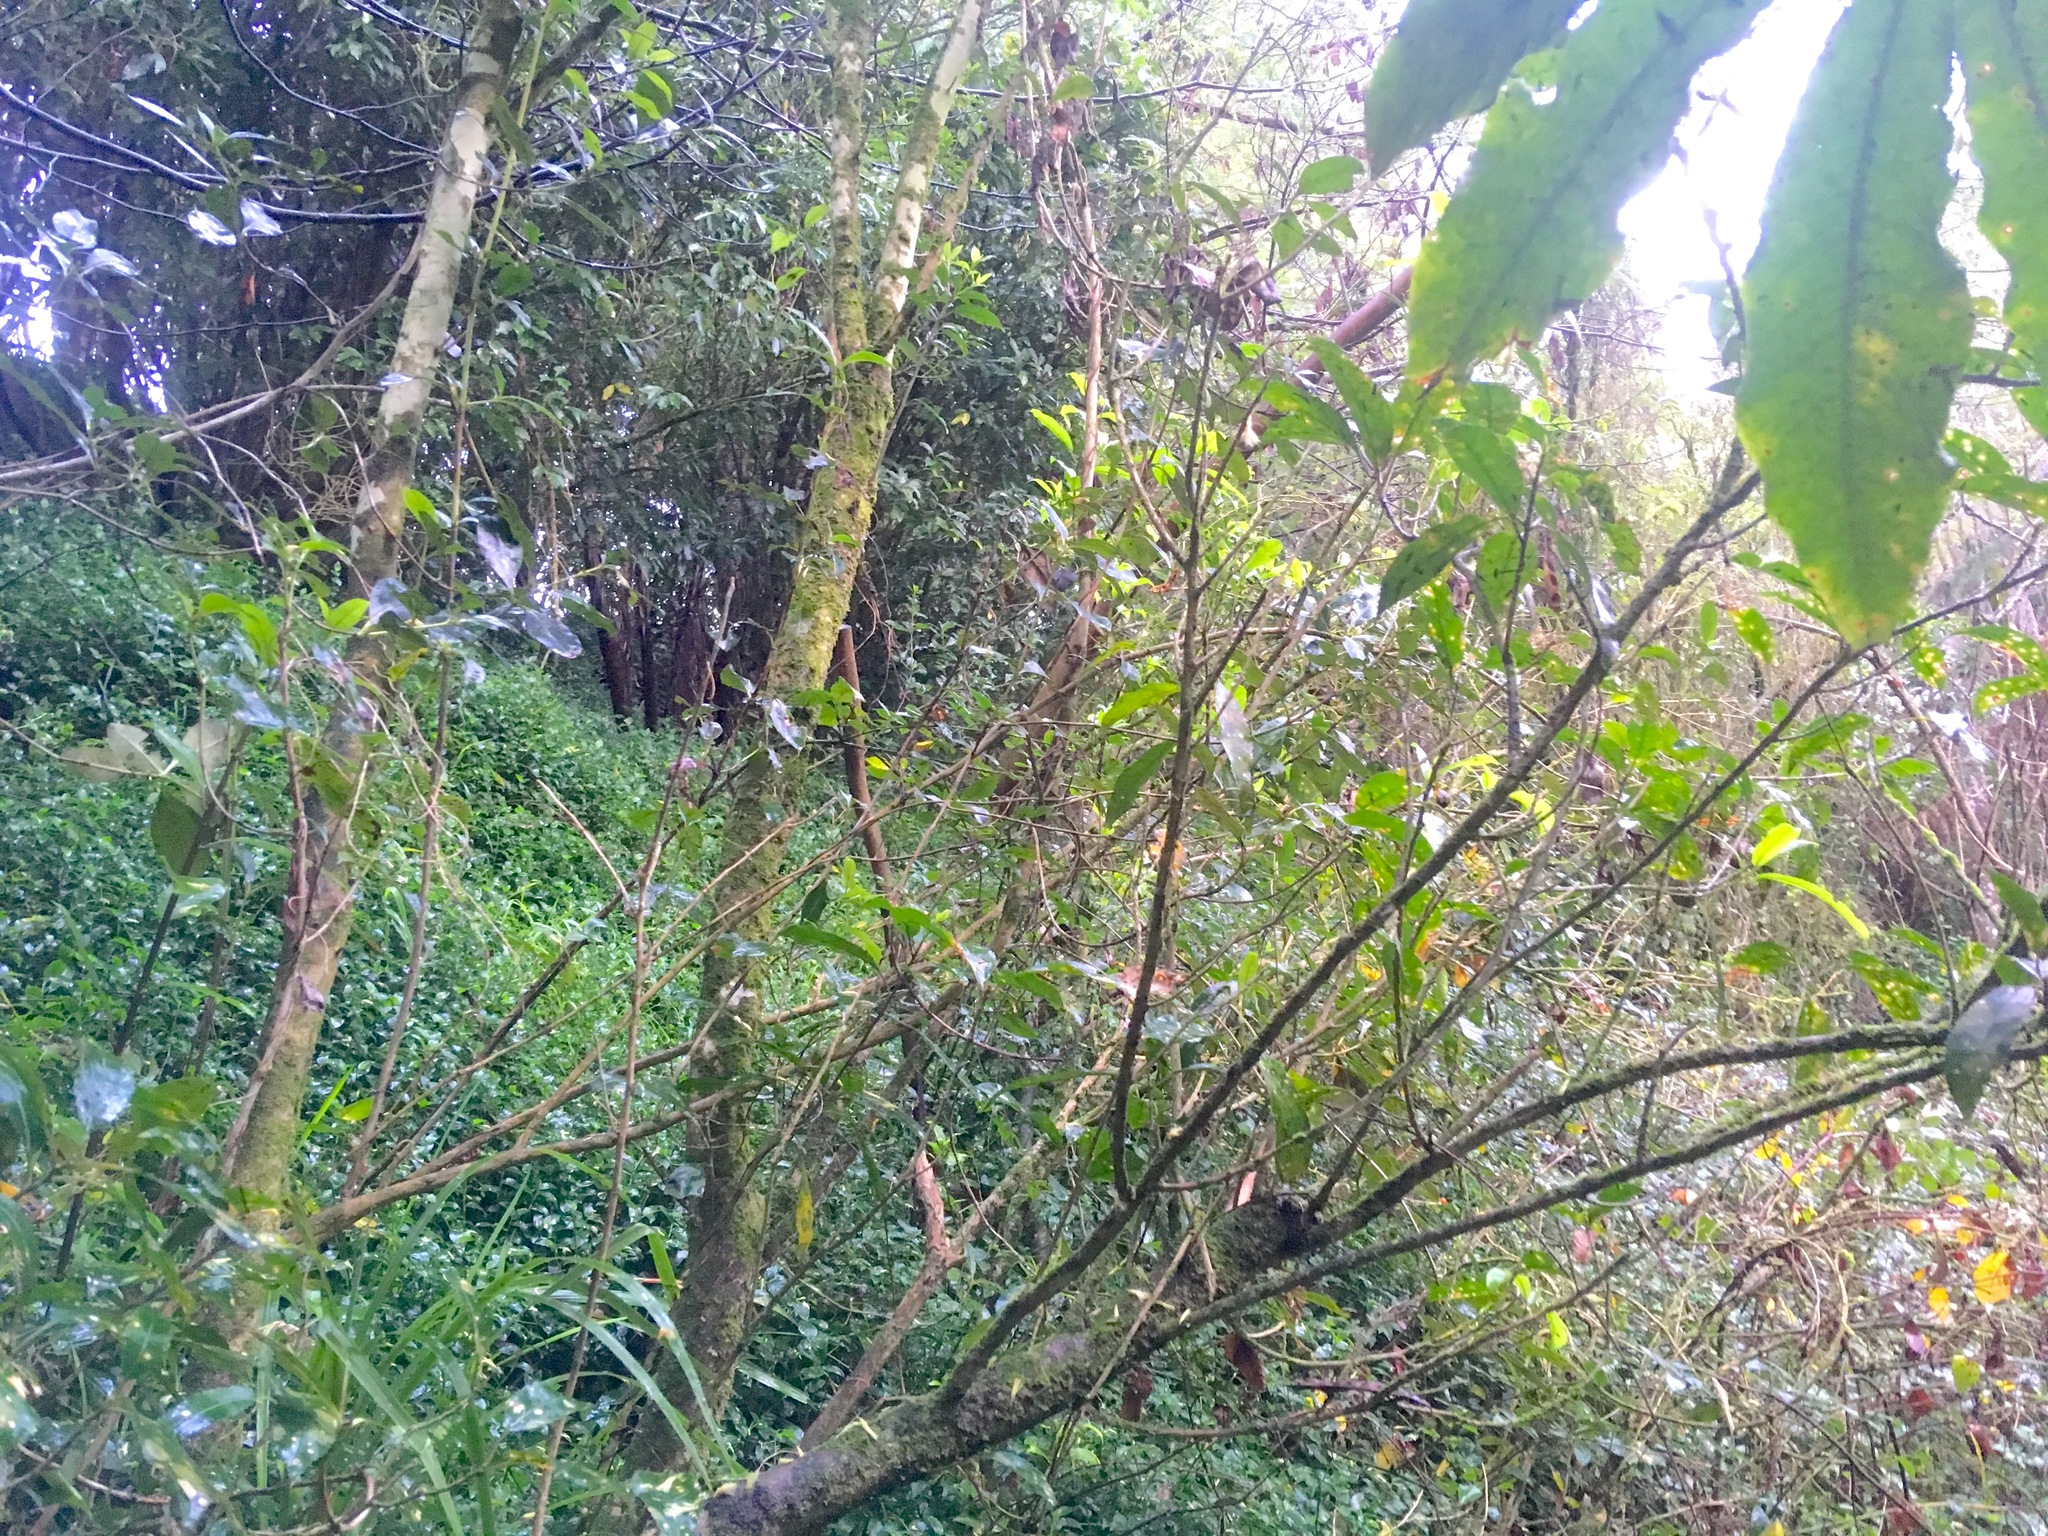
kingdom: Plantae
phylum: Tracheophyta
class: Magnoliopsida
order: Malpighiales
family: Violaceae
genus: Melicytus
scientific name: Melicytus ramiflorus
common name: Mahoe
